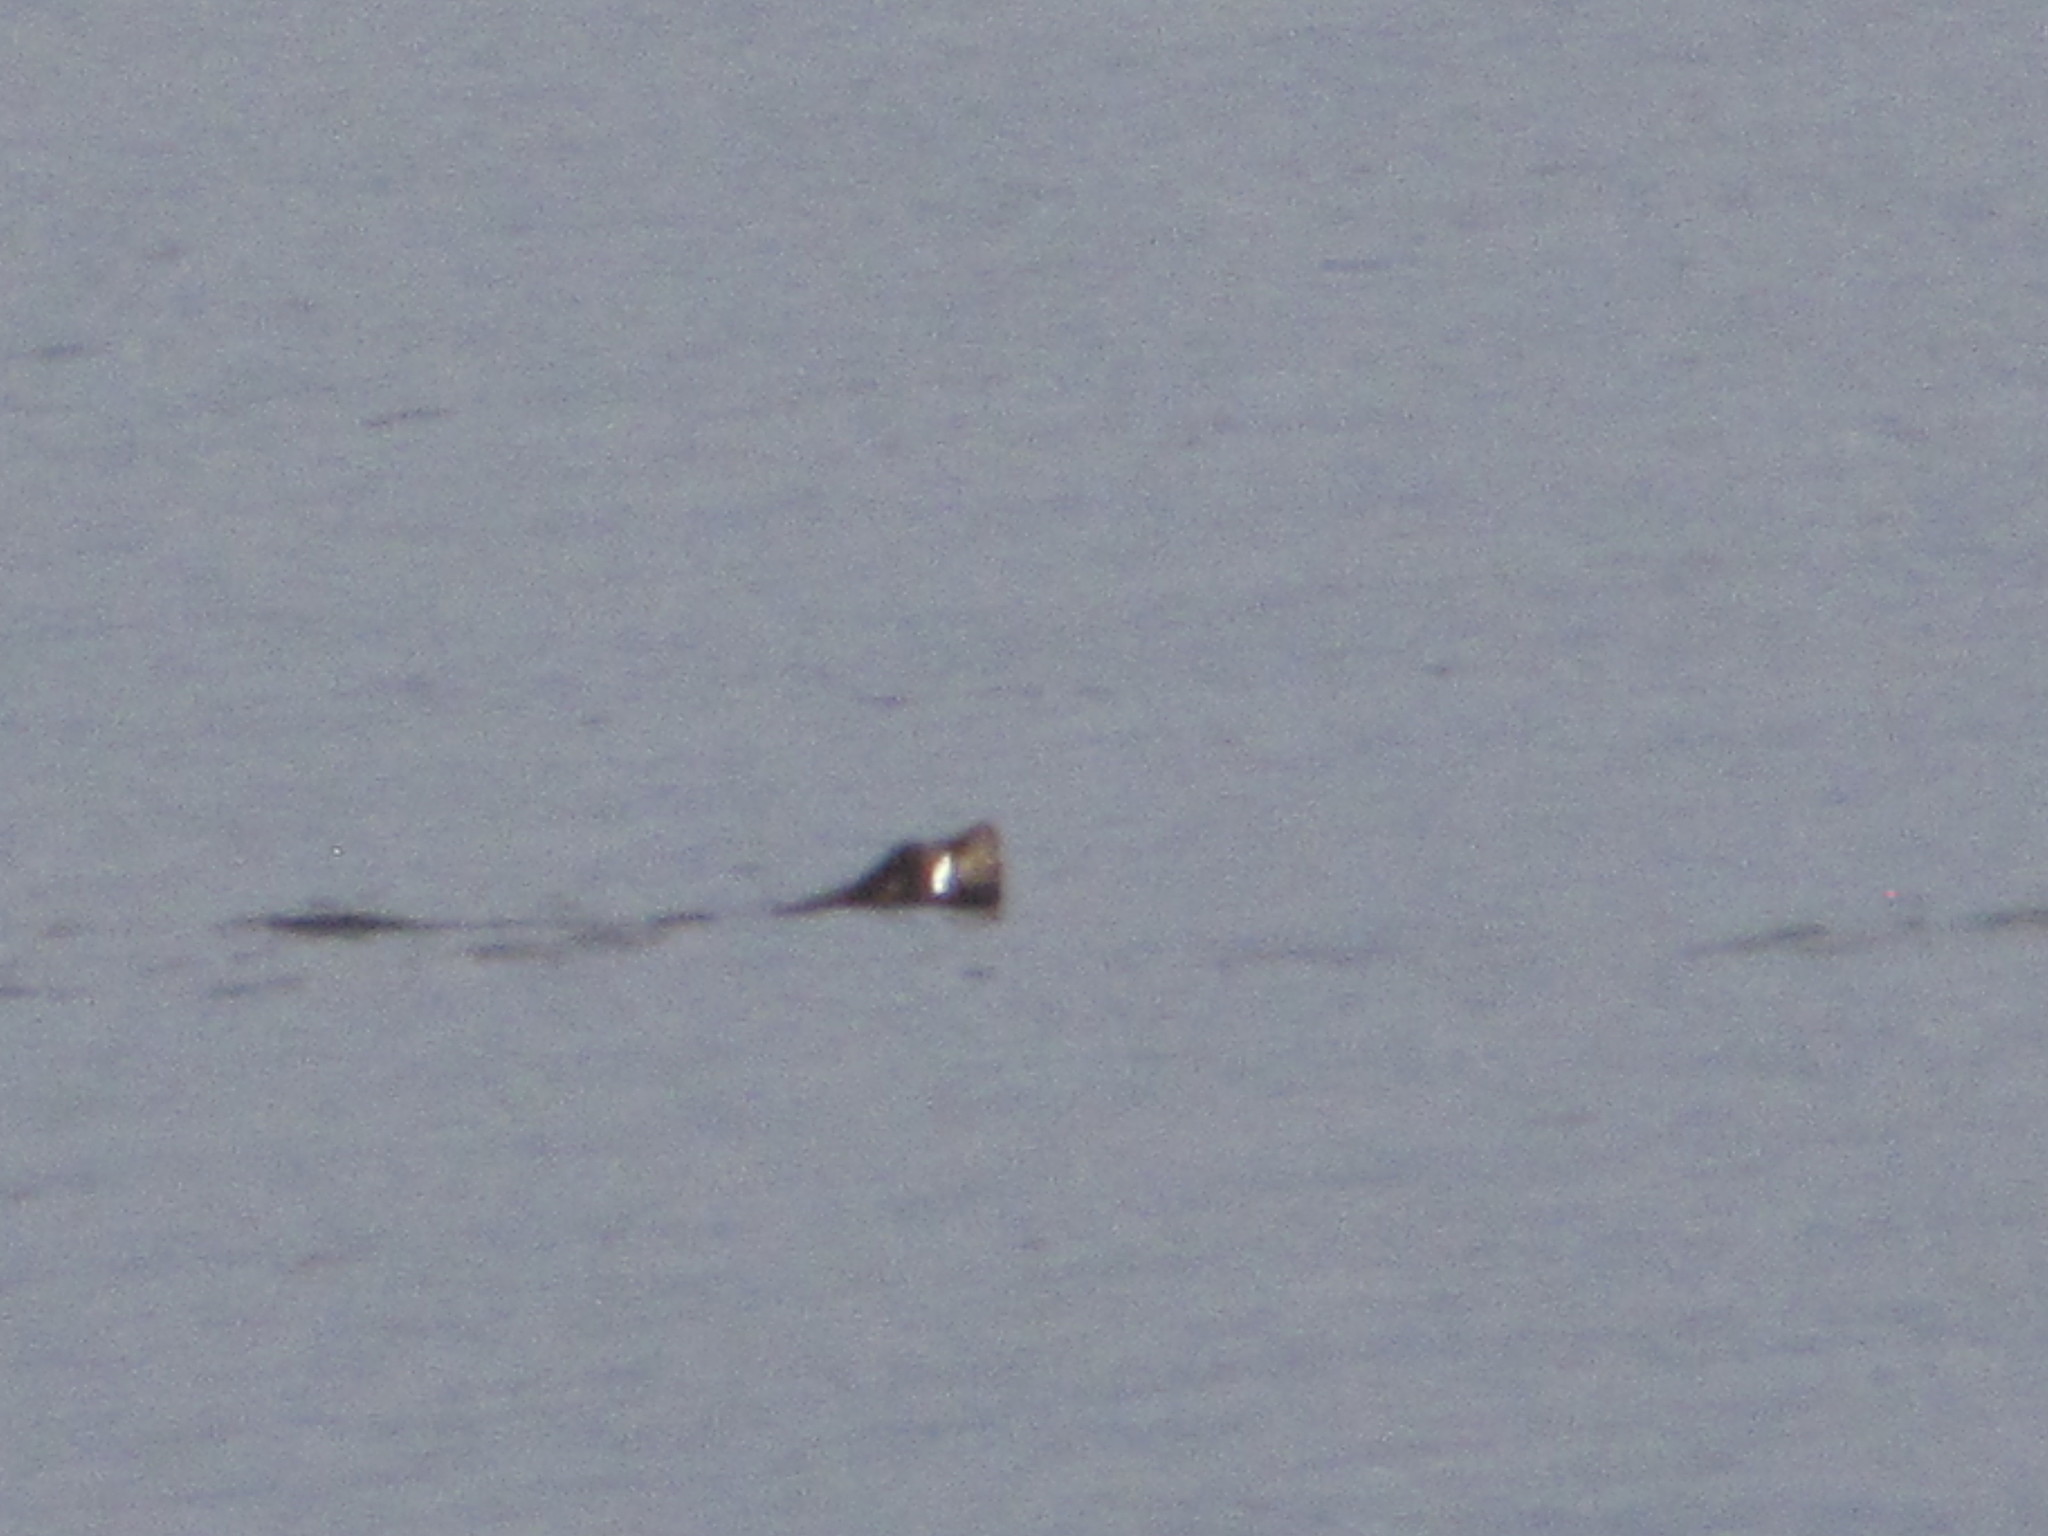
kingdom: Animalia
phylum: Chordata
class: Mammalia
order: Carnivora
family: Otariidae
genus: Zalophus
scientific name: Zalophus californianus
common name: California sea lion
